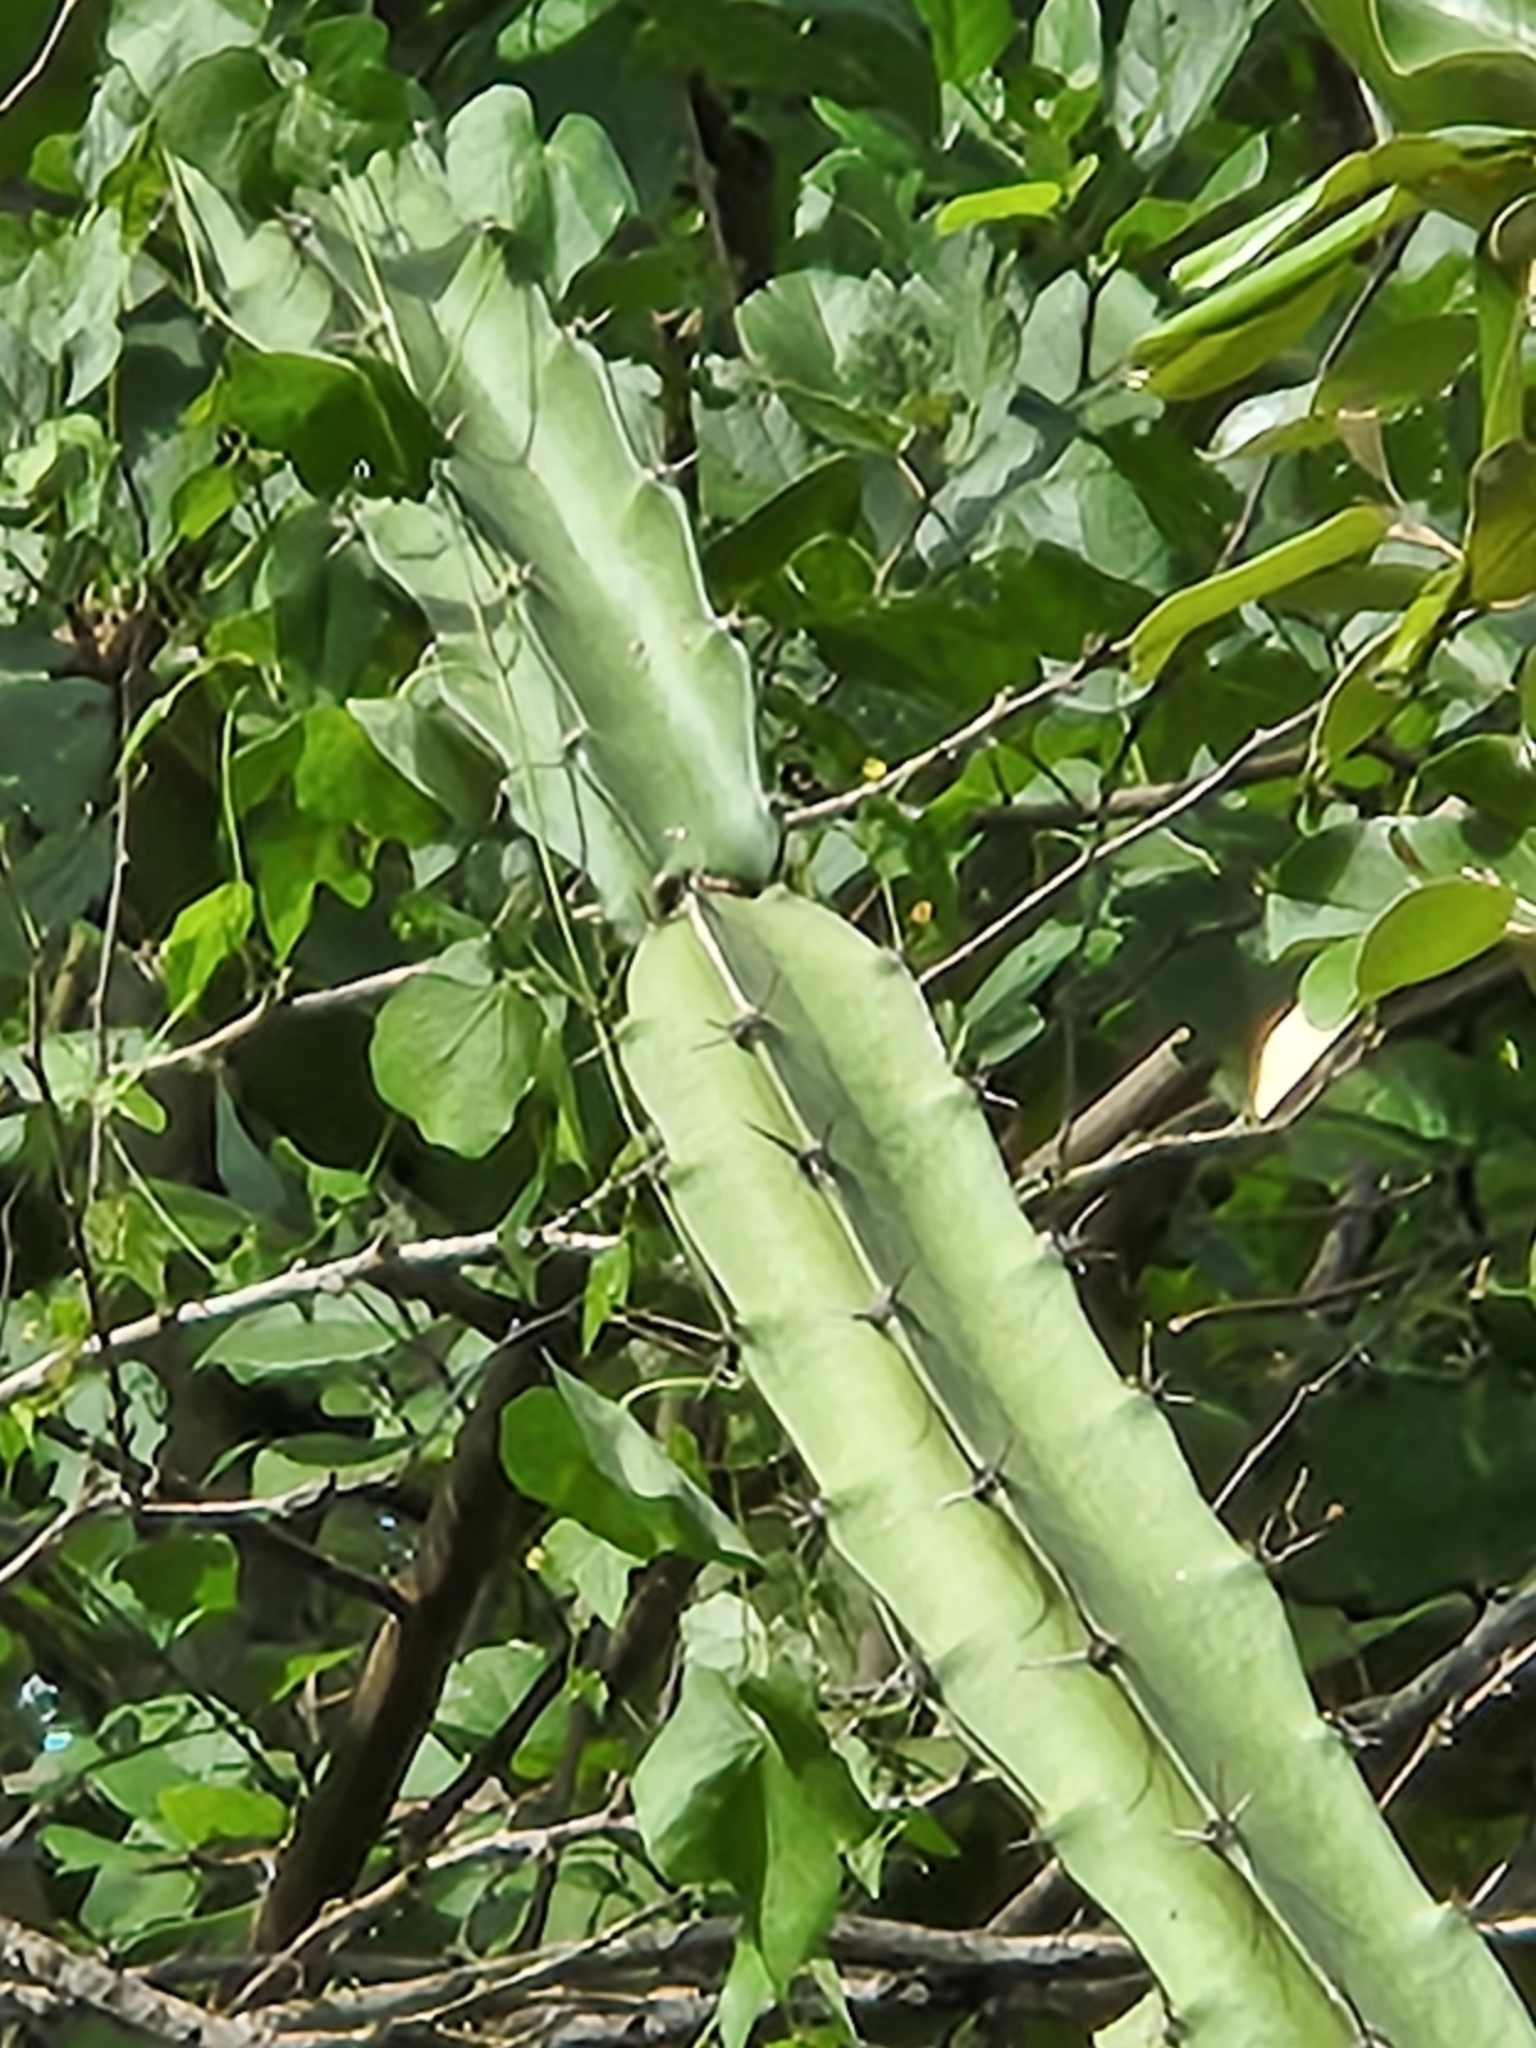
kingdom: Plantae
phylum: Tracheophyta
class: Magnoliopsida
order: Caryophyllales
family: Cactaceae
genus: Acanthocereus
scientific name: Acanthocereus tetragonus
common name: Triangle cactus
